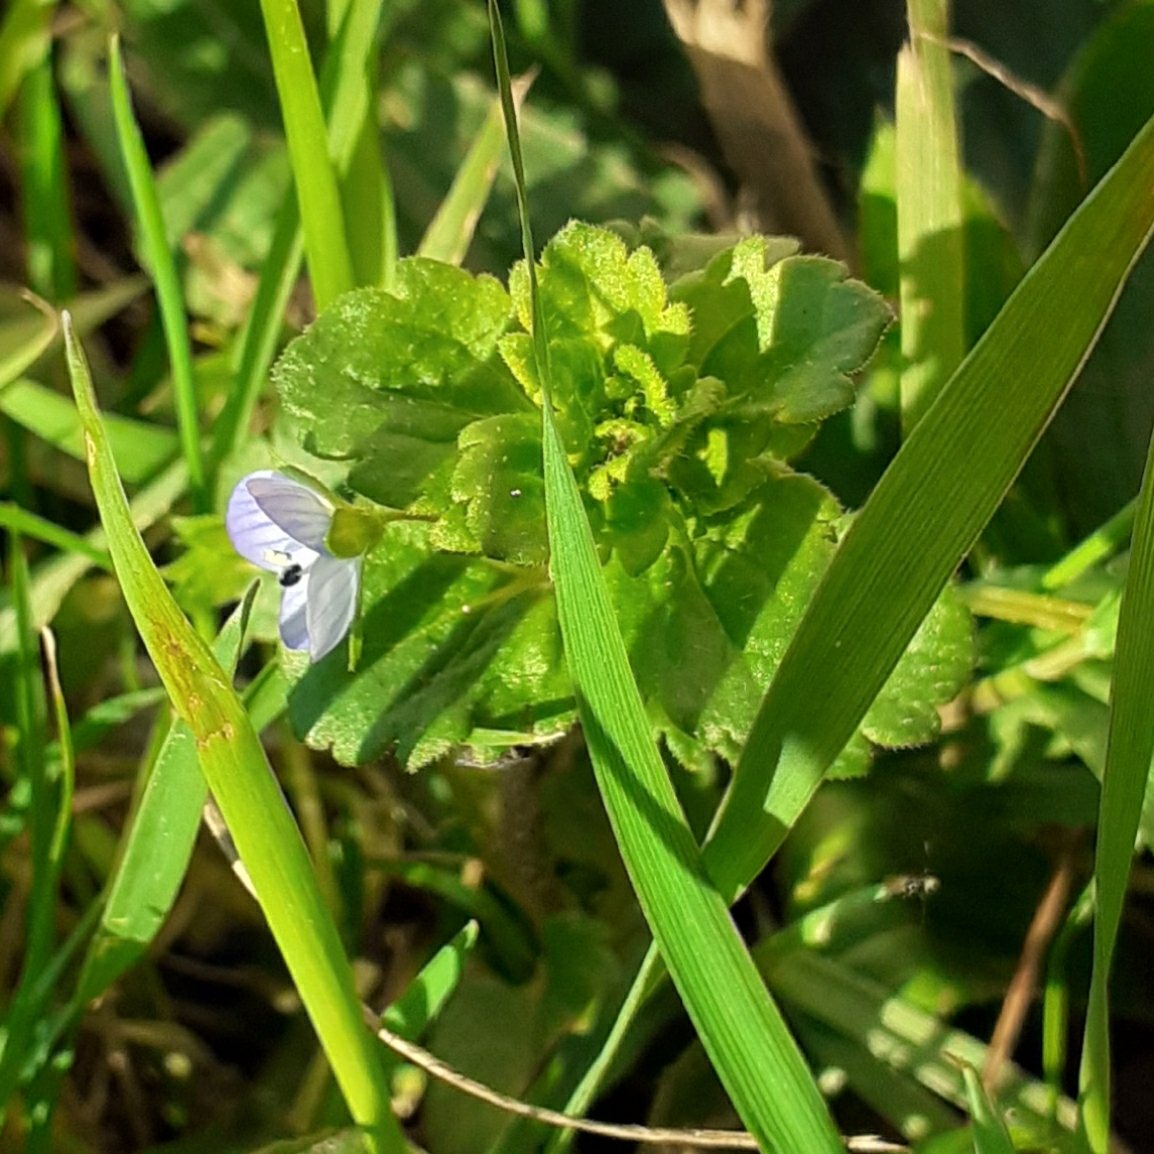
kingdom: Plantae
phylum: Tracheophyta
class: Magnoliopsida
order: Lamiales
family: Plantaginaceae
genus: Veronica
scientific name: Veronica persica
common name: Common field-speedwell
